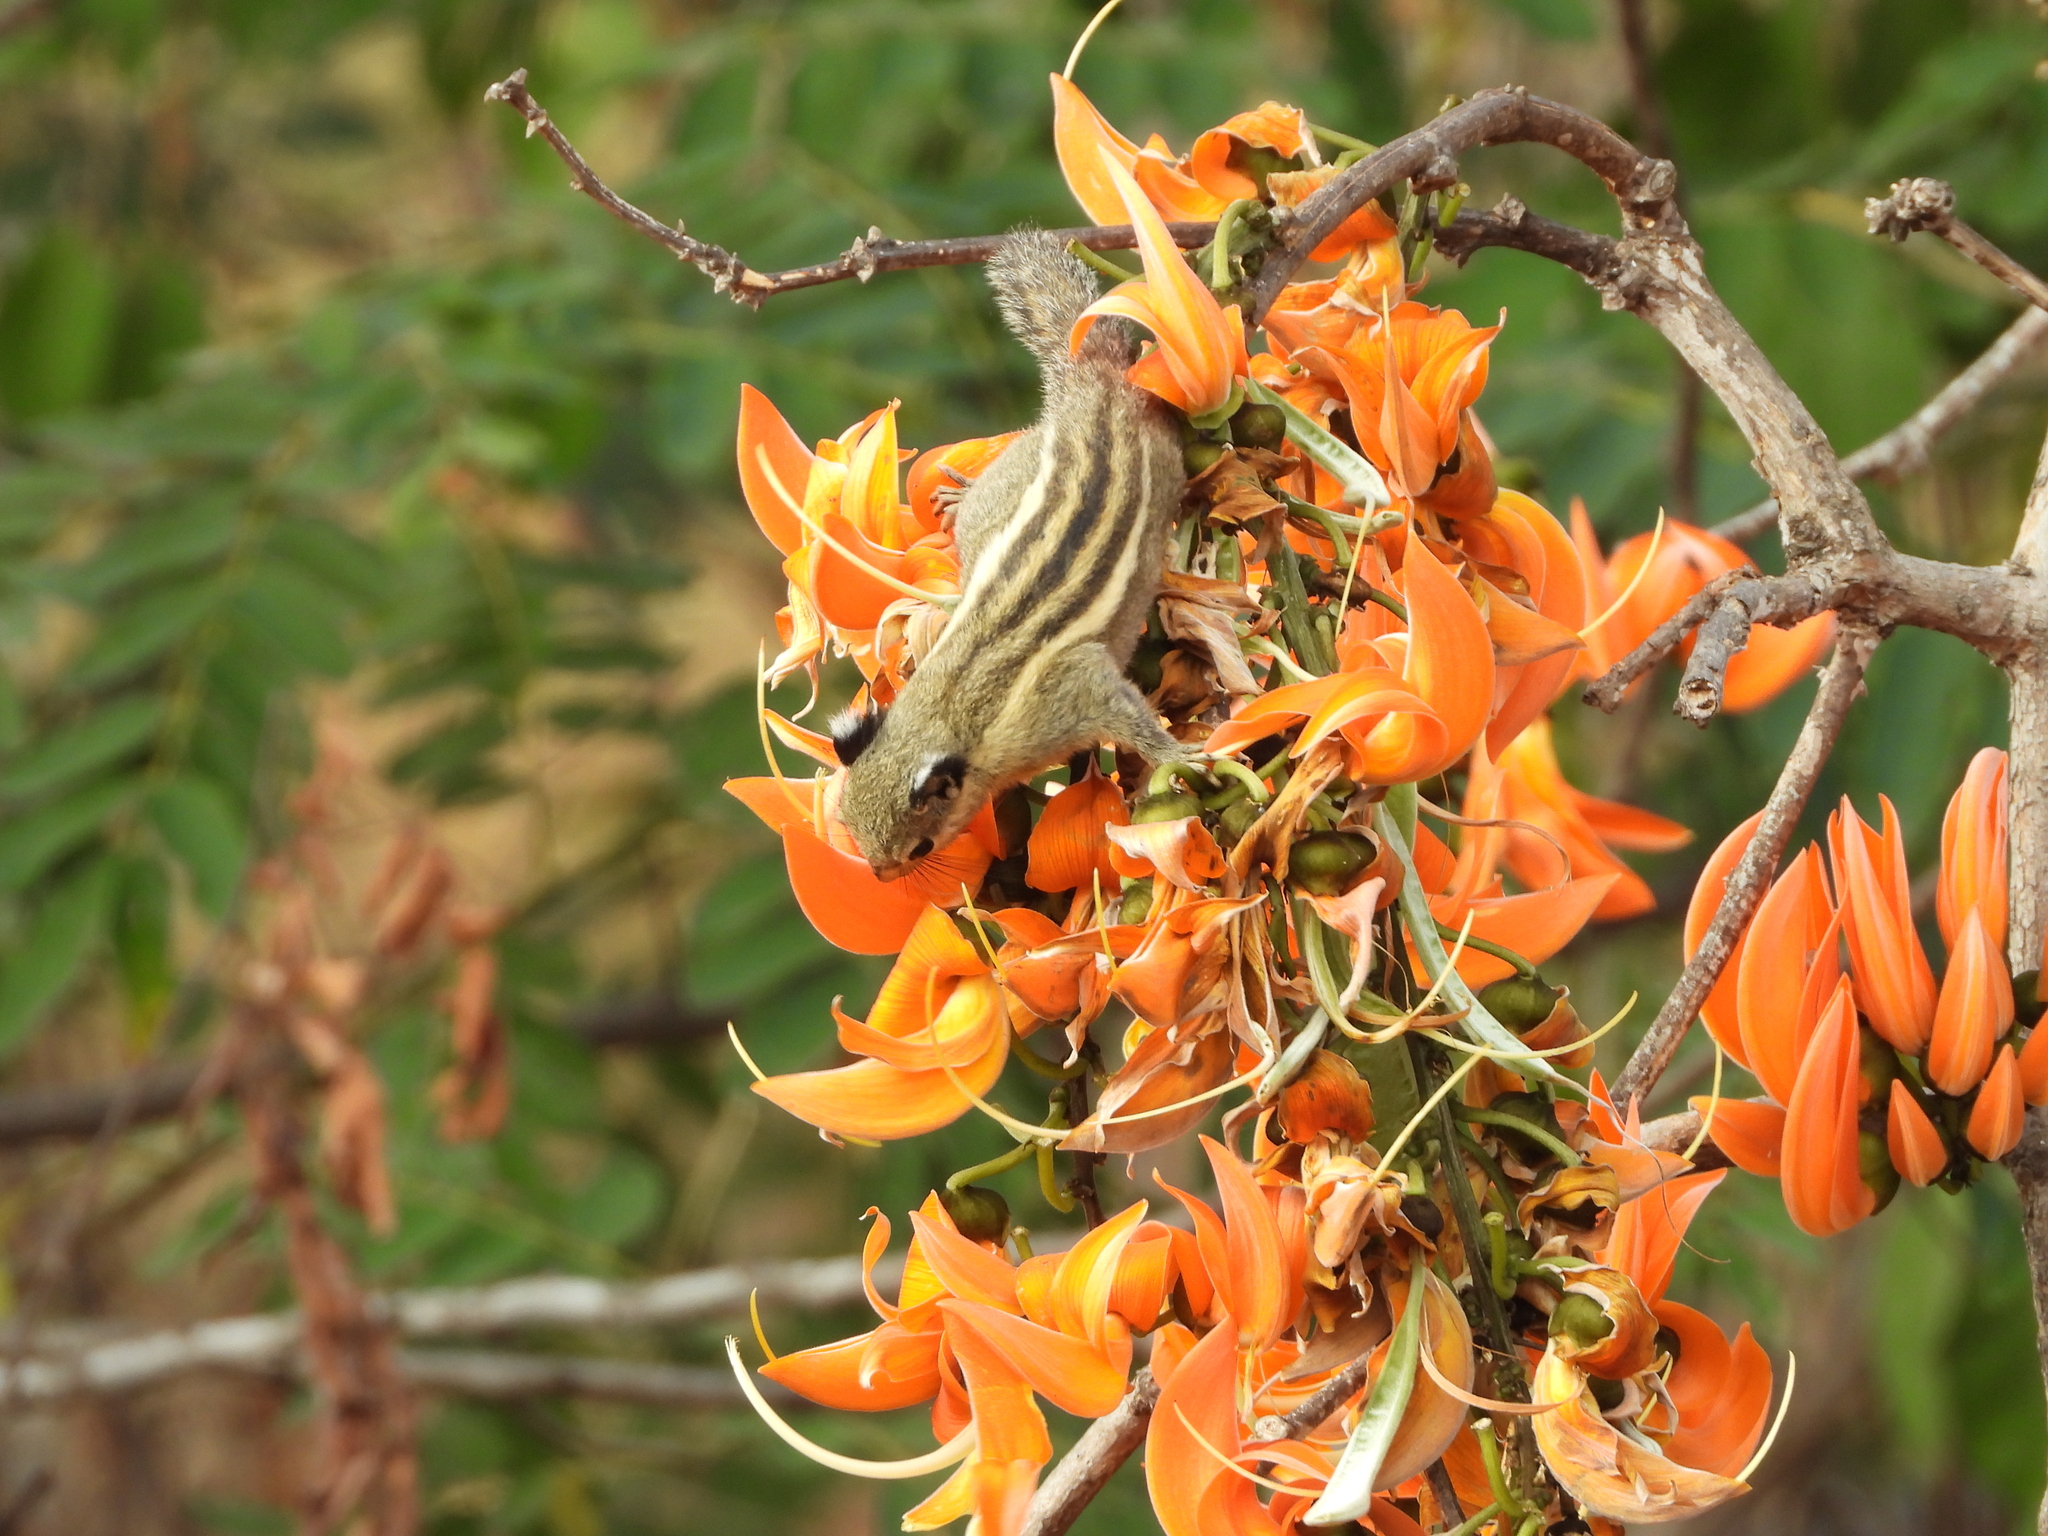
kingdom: Animalia
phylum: Chordata
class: Mammalia
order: Rodentia
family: Sciuridae
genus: Tamiops
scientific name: Tamiops mcclellandii
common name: Himalayan striped squirrel
